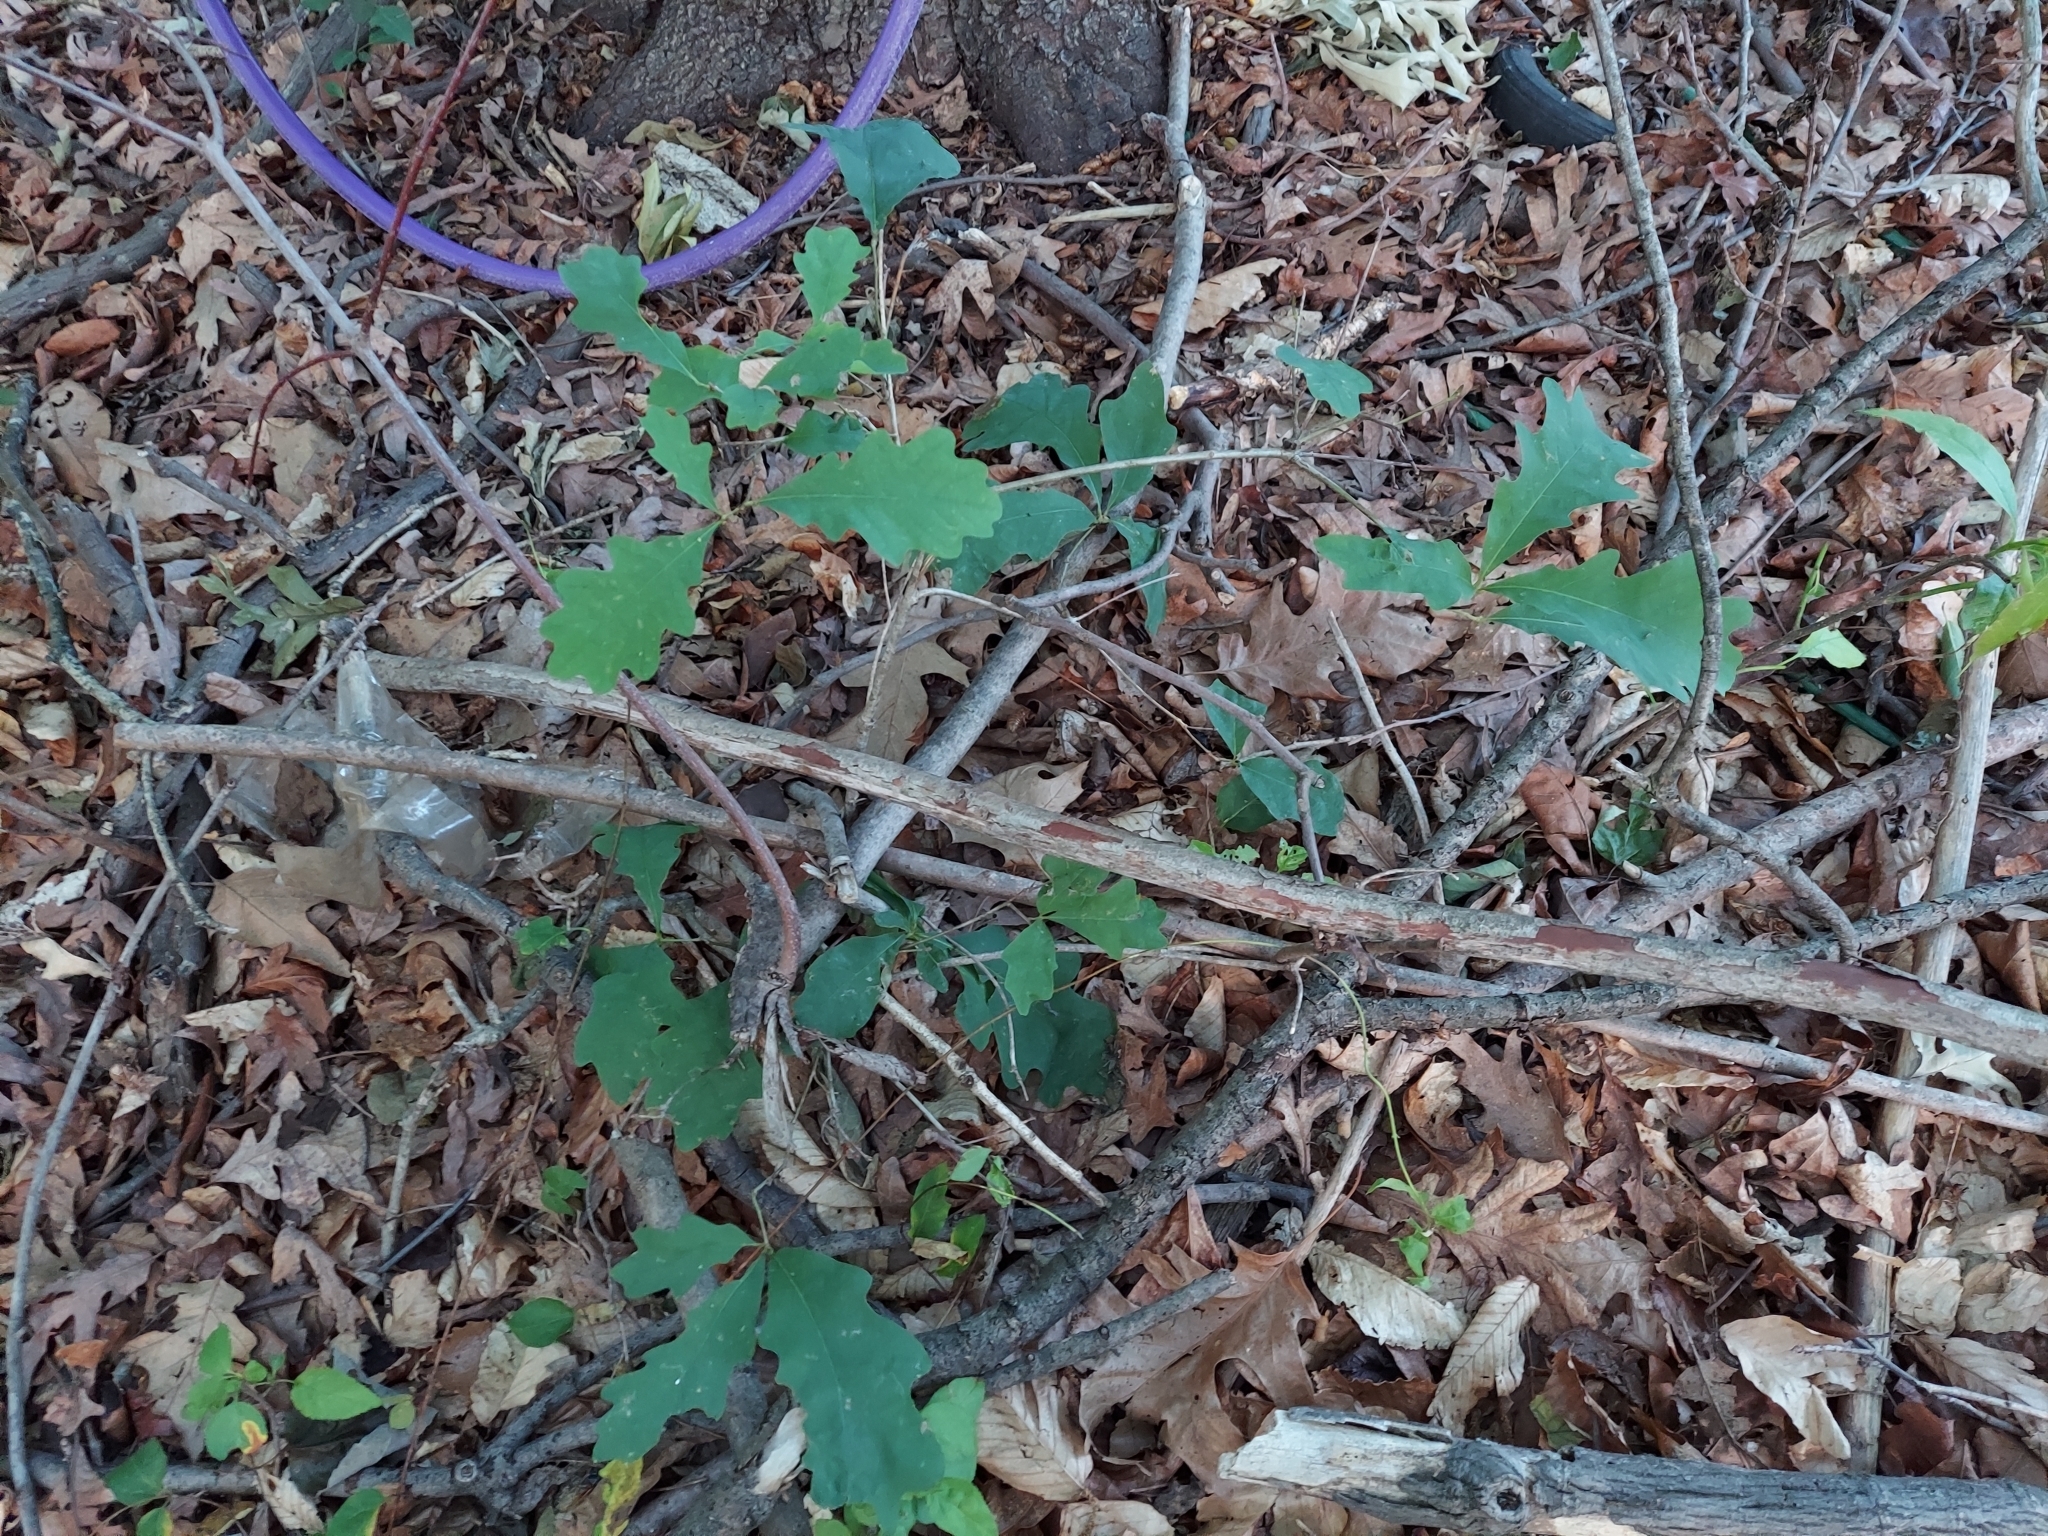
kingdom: Plantae
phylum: Tracheophyta
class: Magnoliopsida
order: Fagales
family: Fagaceae
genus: Quercus
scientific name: Quercus alba
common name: White oak
